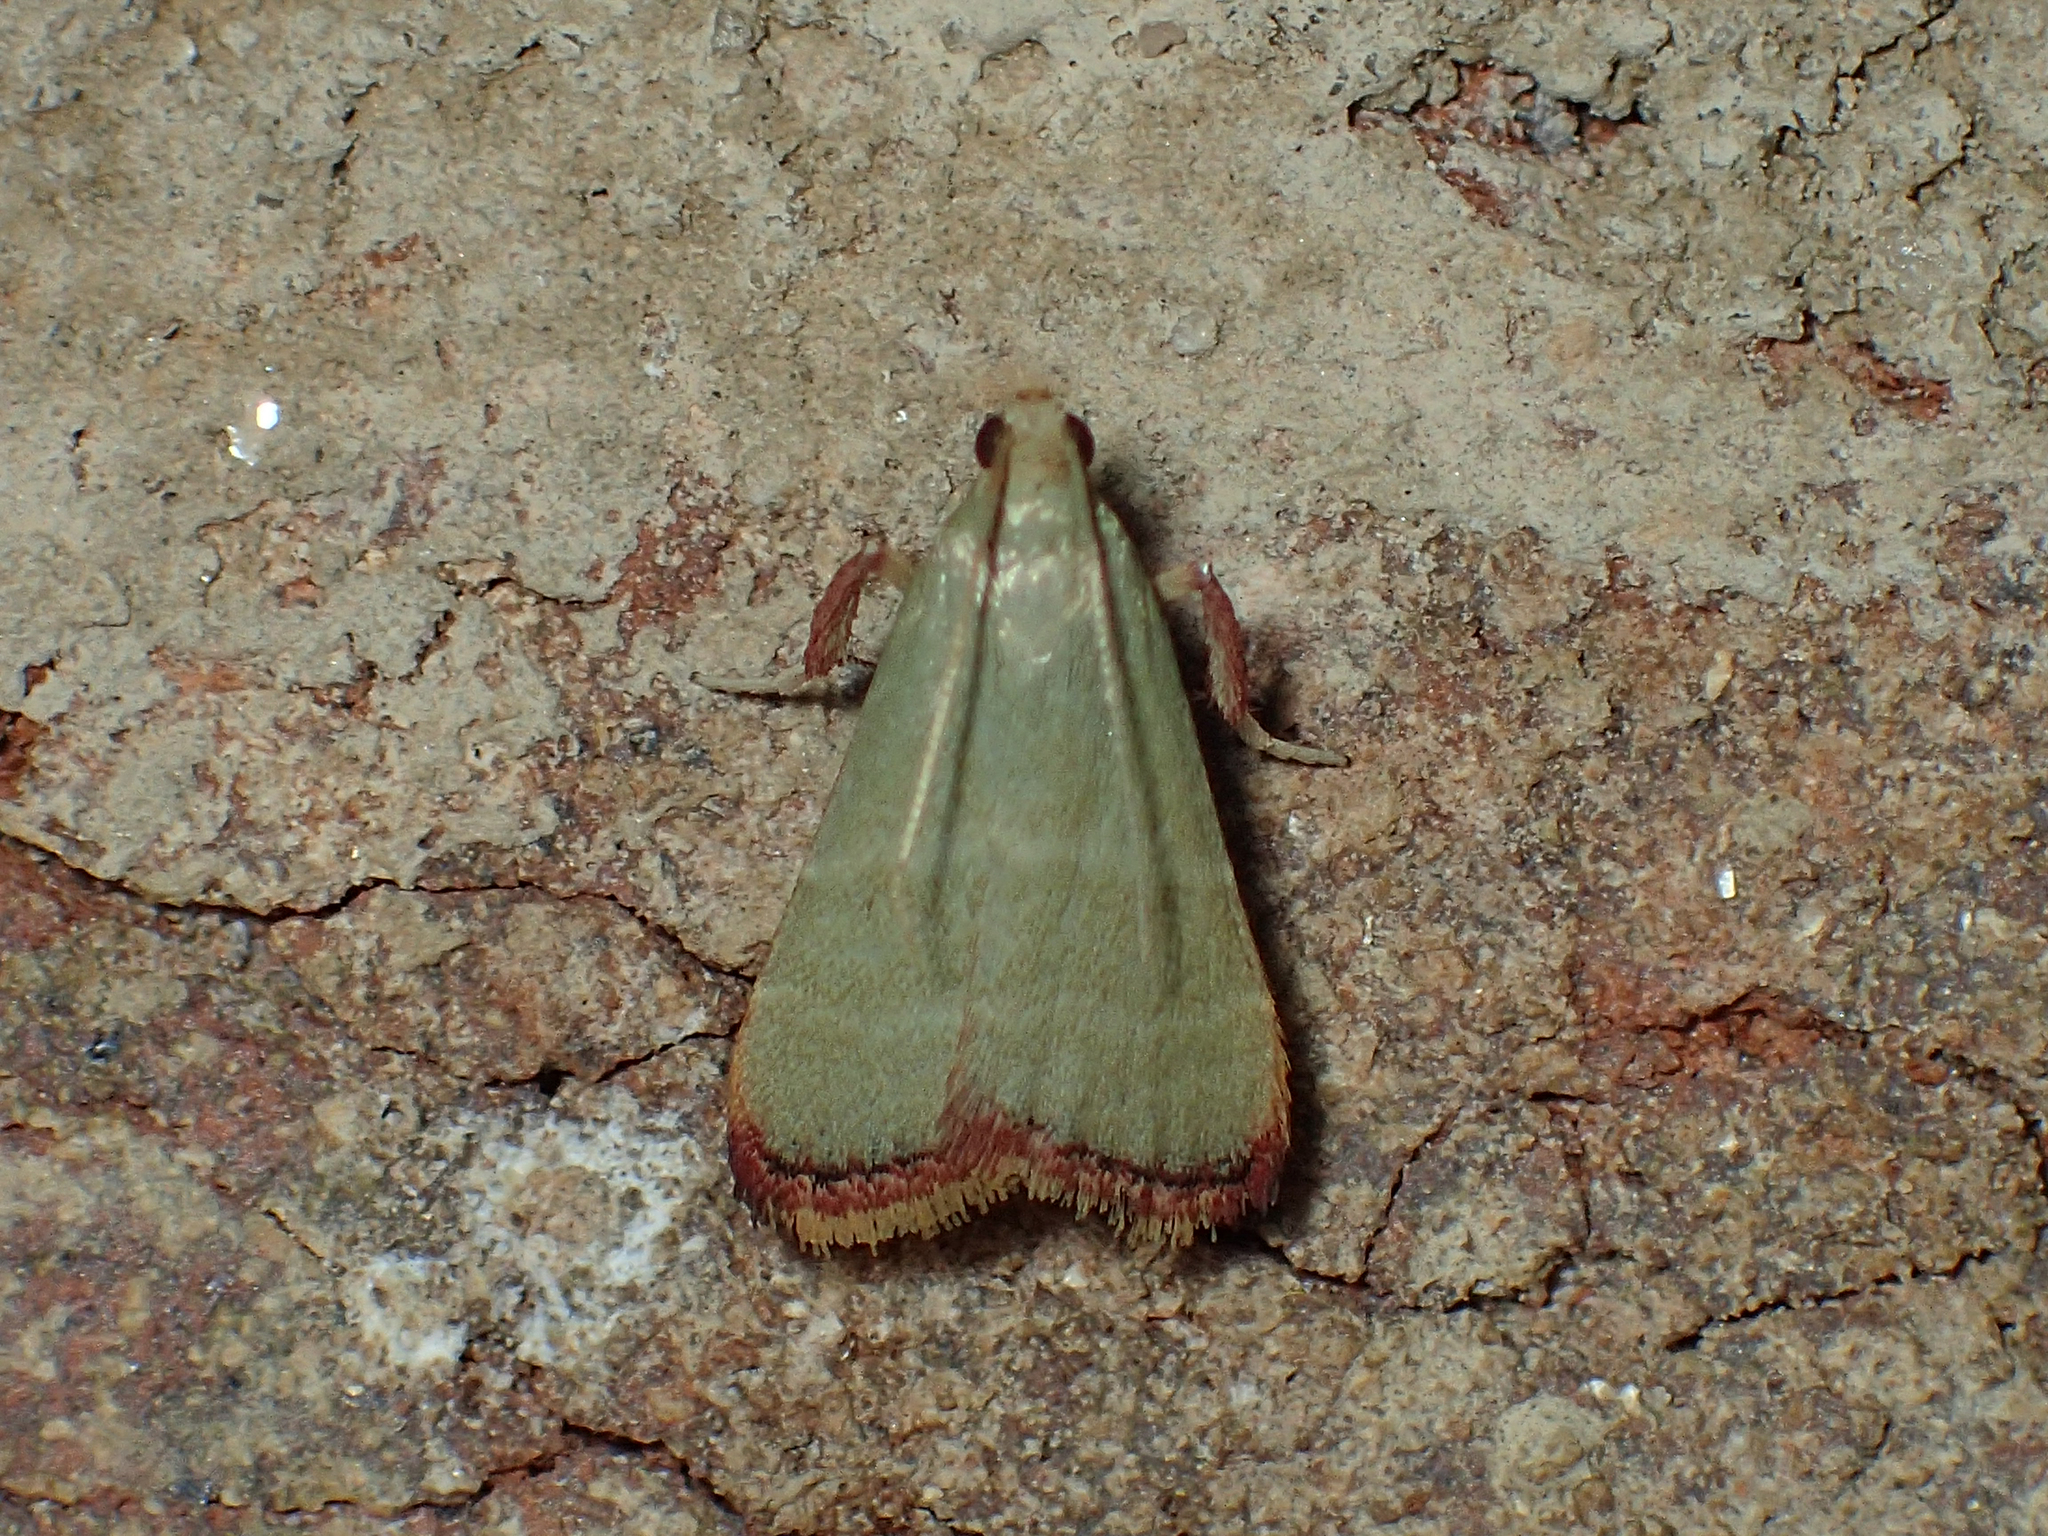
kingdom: Animalia
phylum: Arthropoda
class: Insecta
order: Lepidoptera
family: Pyralidae
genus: Arta
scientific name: Arta olivalis
